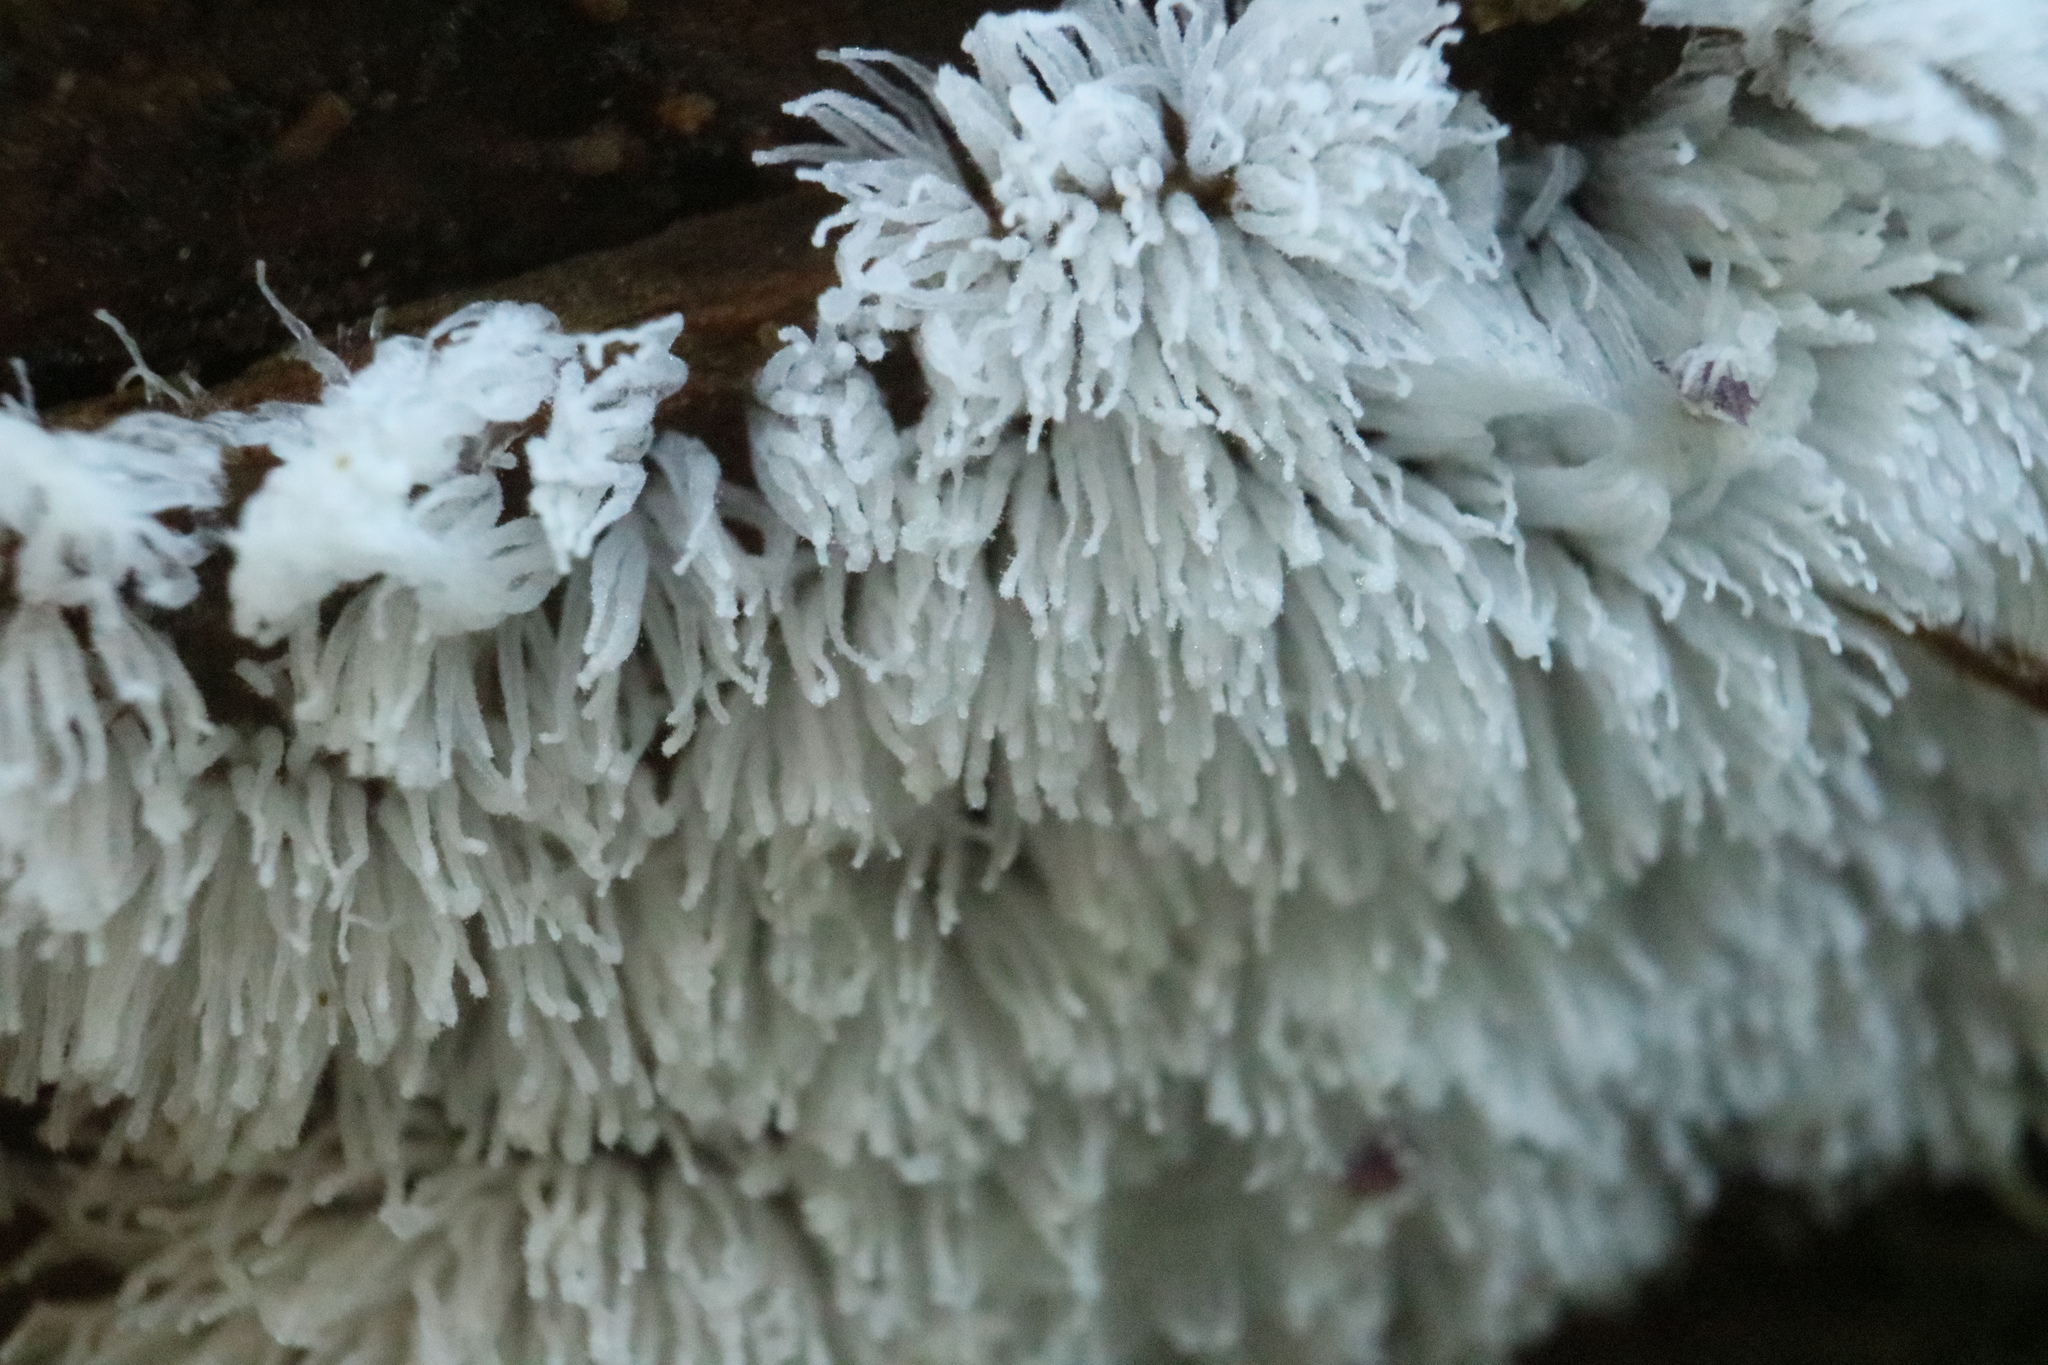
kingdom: Protozoa
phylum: Mycetozoa
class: Protosteliomycetes
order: Ceratiomyxales
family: Ceratiomyxaceae
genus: Ceratiomyxa
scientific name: Ceratiomyxa fruticulosa
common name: Honeycomb coral slime mold
